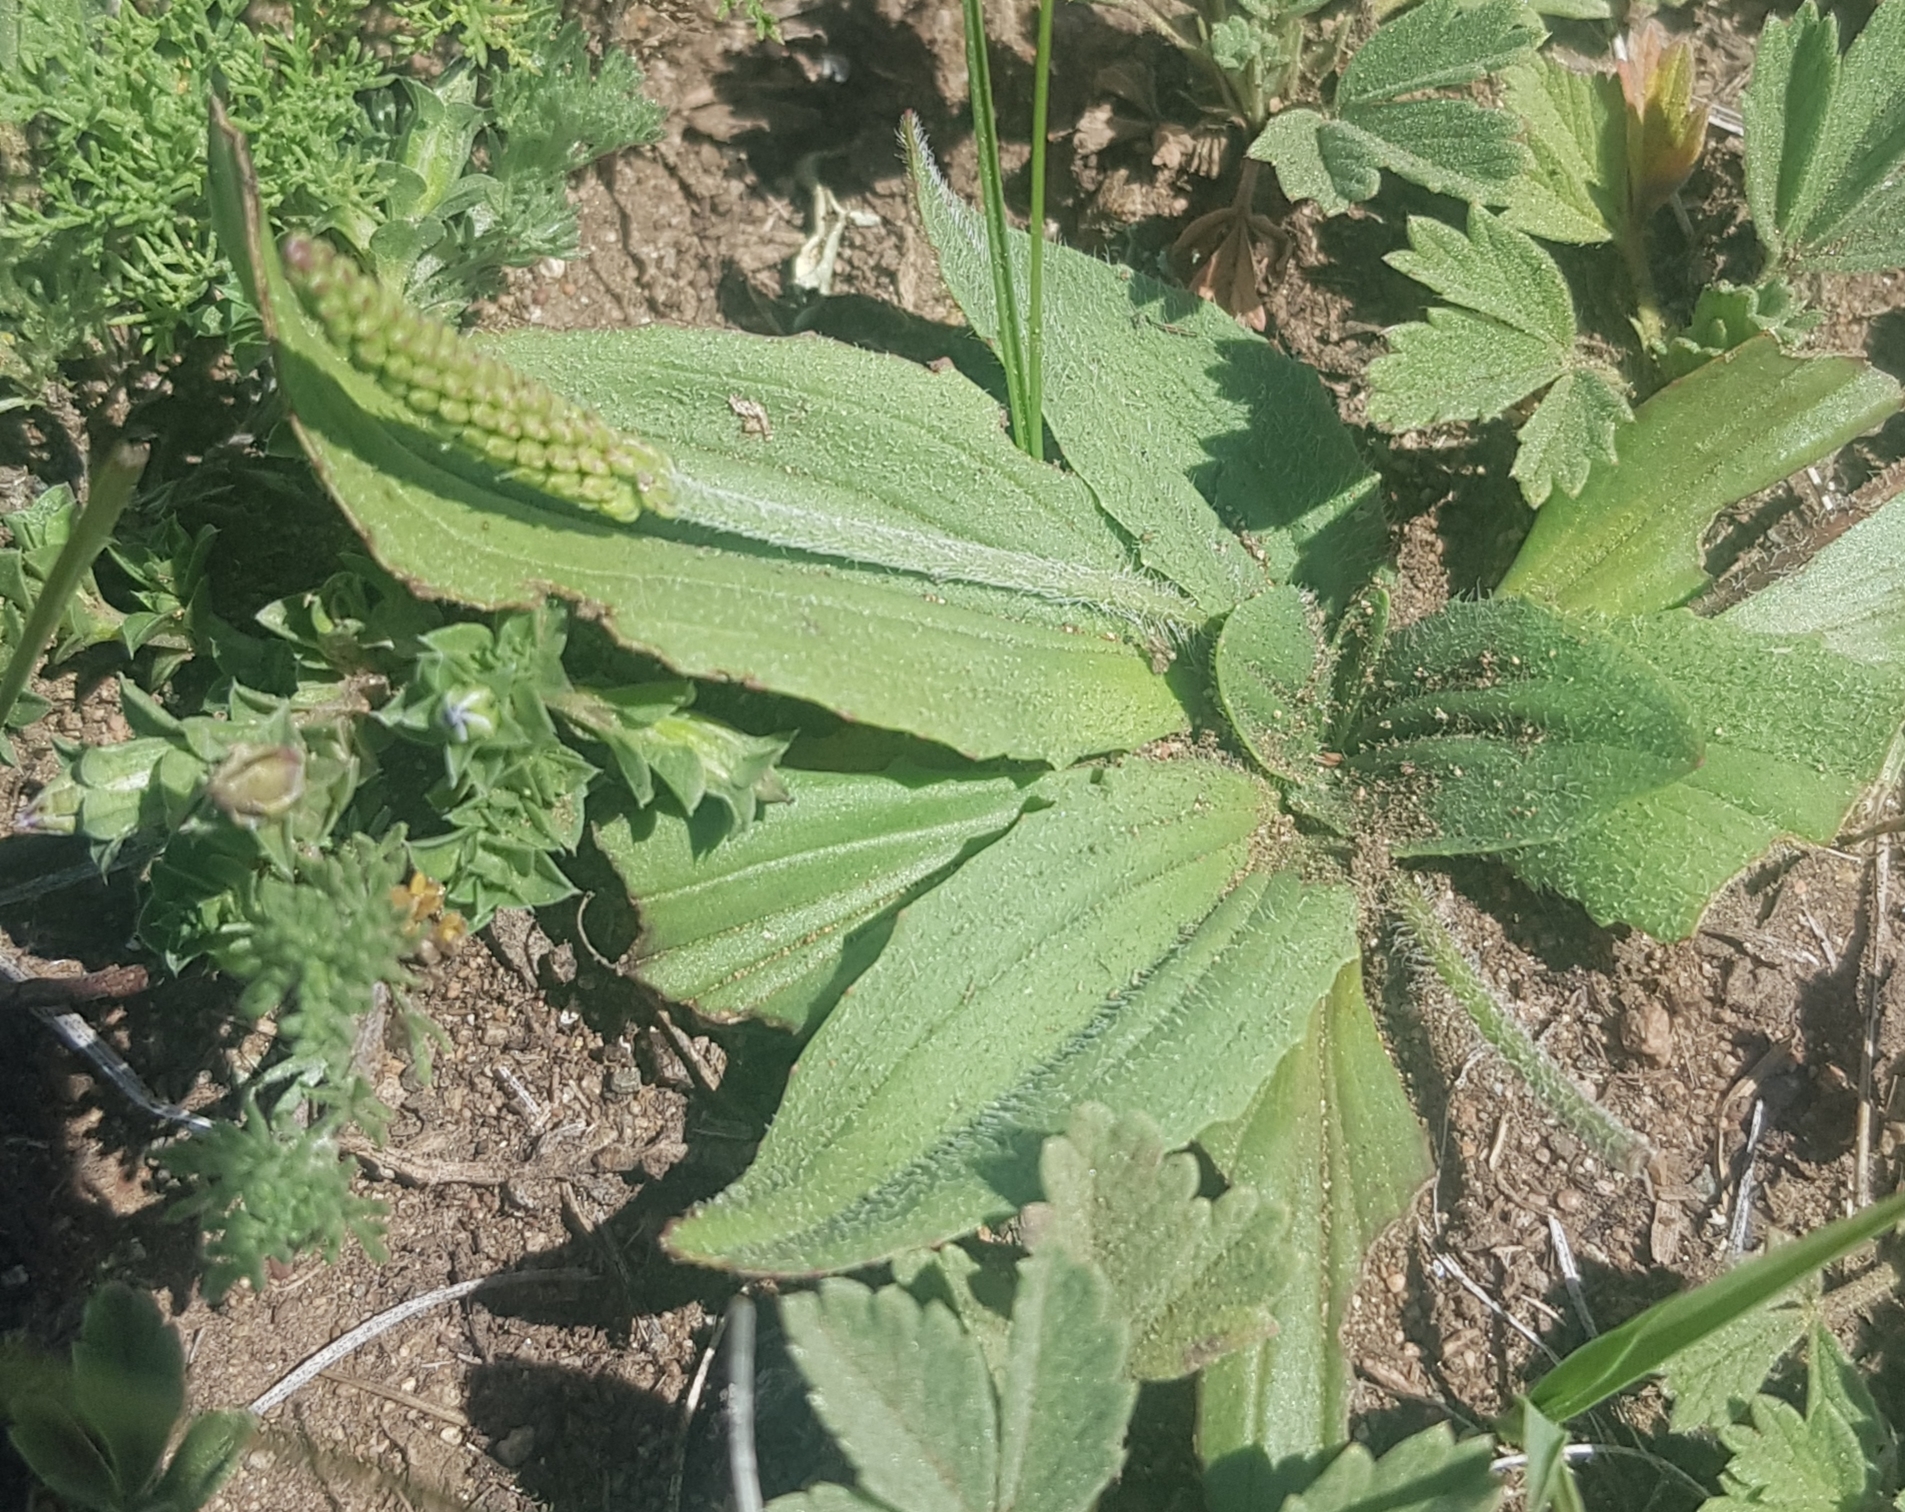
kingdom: Plantae
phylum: Tracheophyta
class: Magnoliopsida
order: Lamiales
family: Plantaginaceae
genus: Plantago
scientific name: Plantago depressa
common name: Depressed plantain
